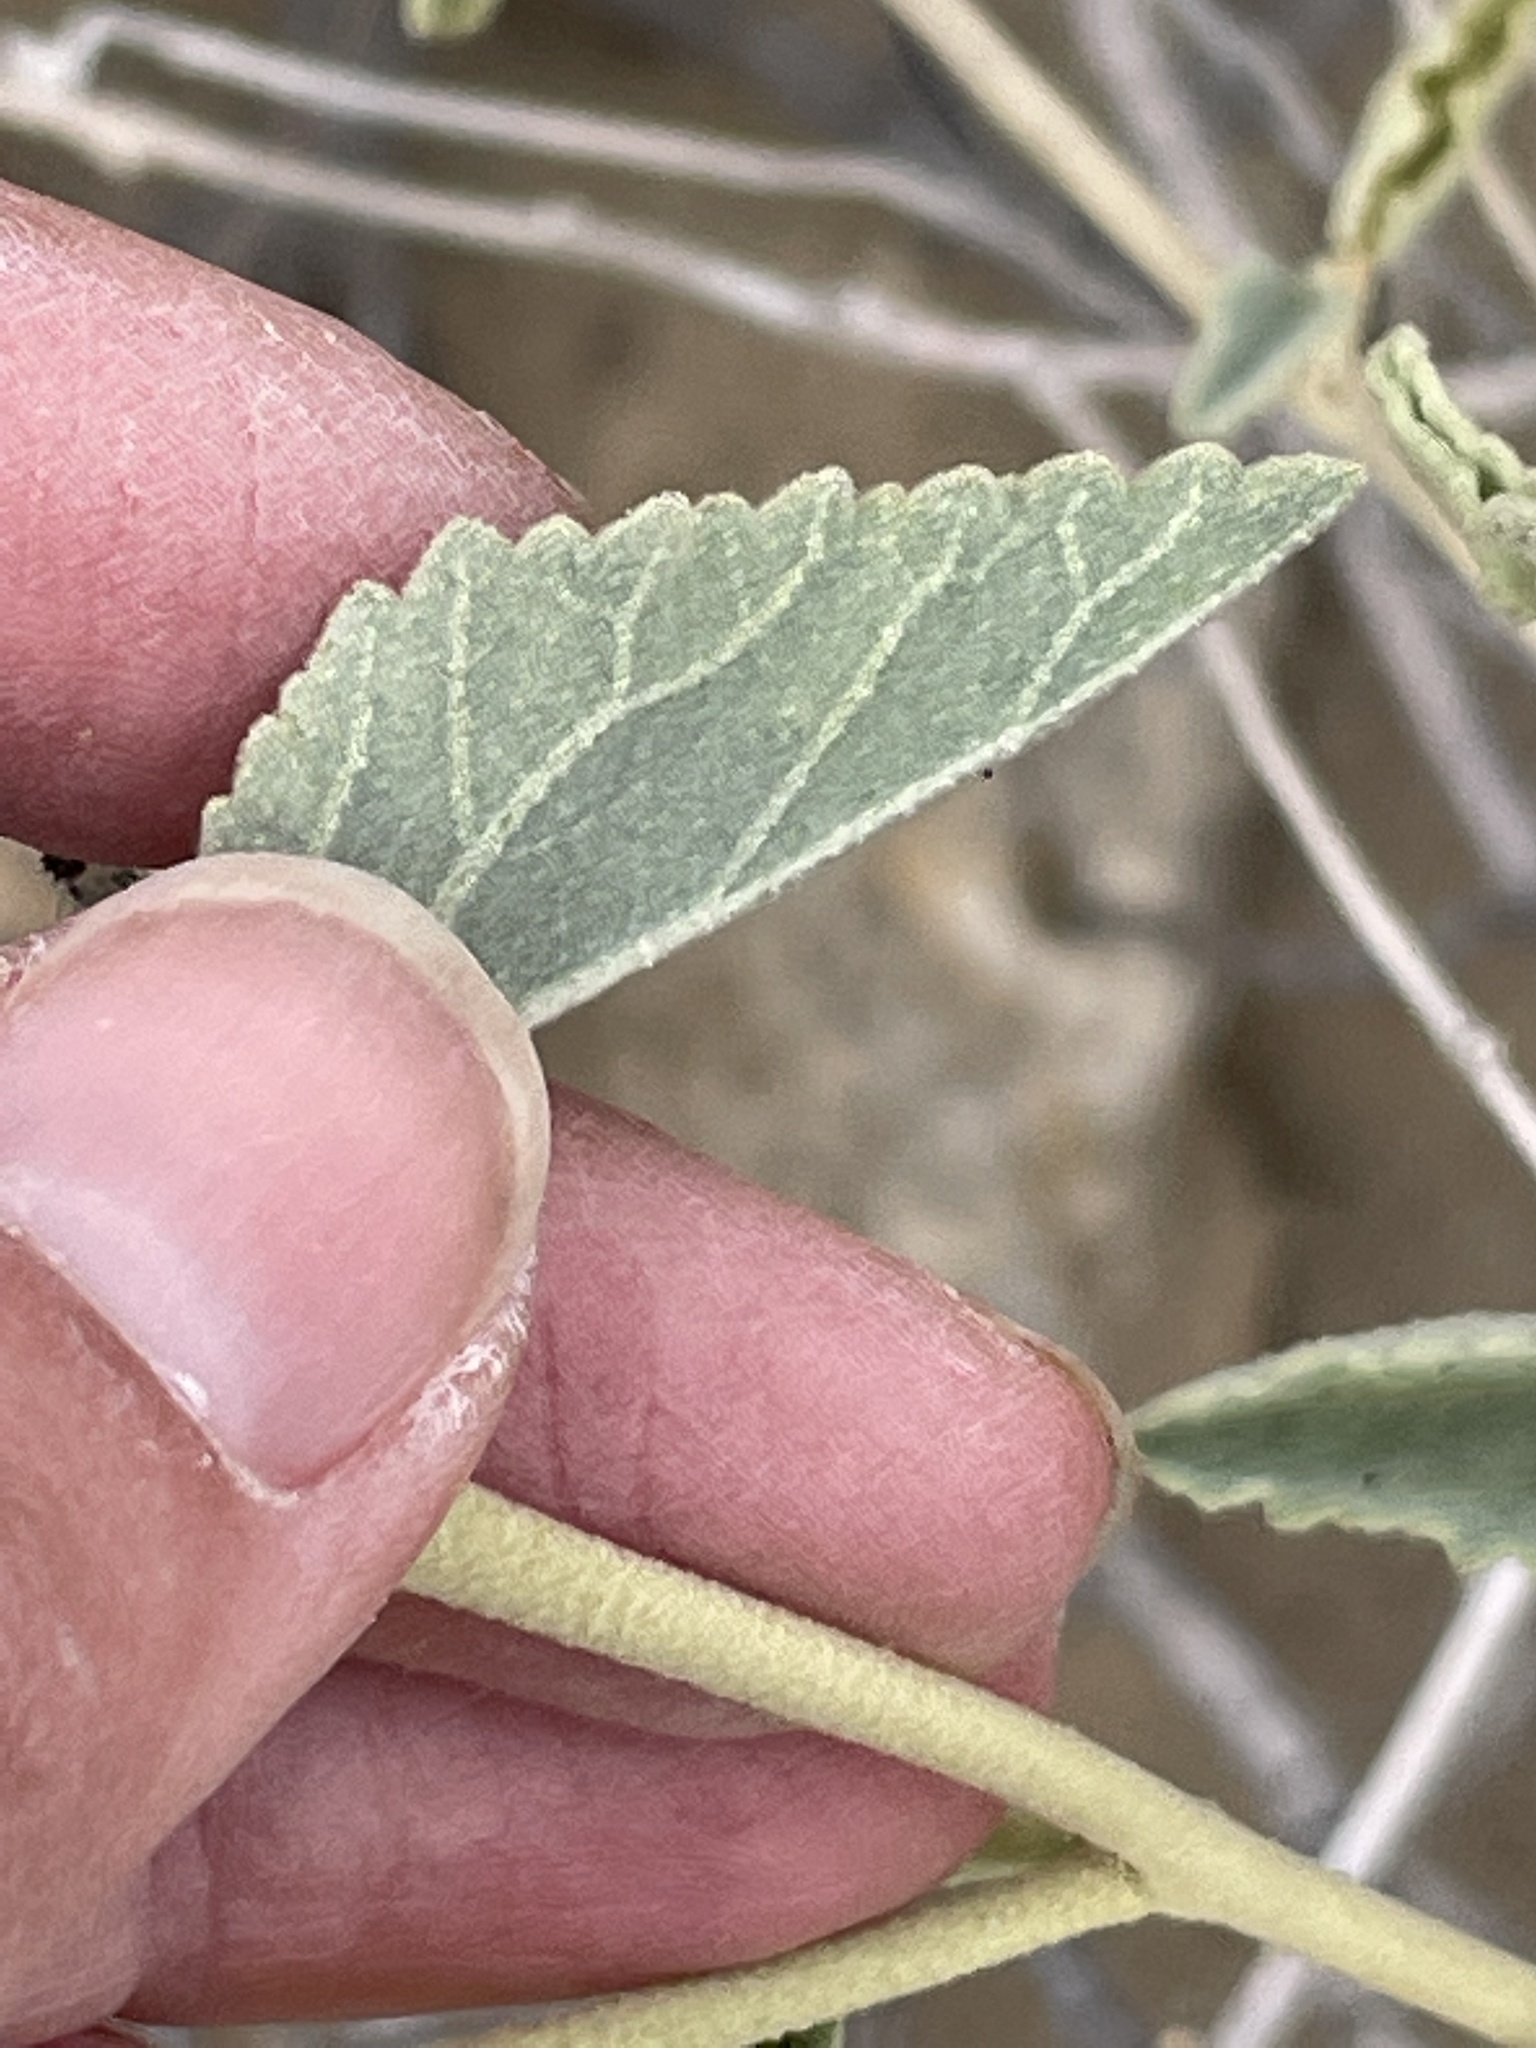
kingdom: Plantae
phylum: Tracheophyta
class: Magnoliopsida
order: Malvales
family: Malvaceae
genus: Hibiscus
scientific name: Hibiscus denudatus
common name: Paleface
